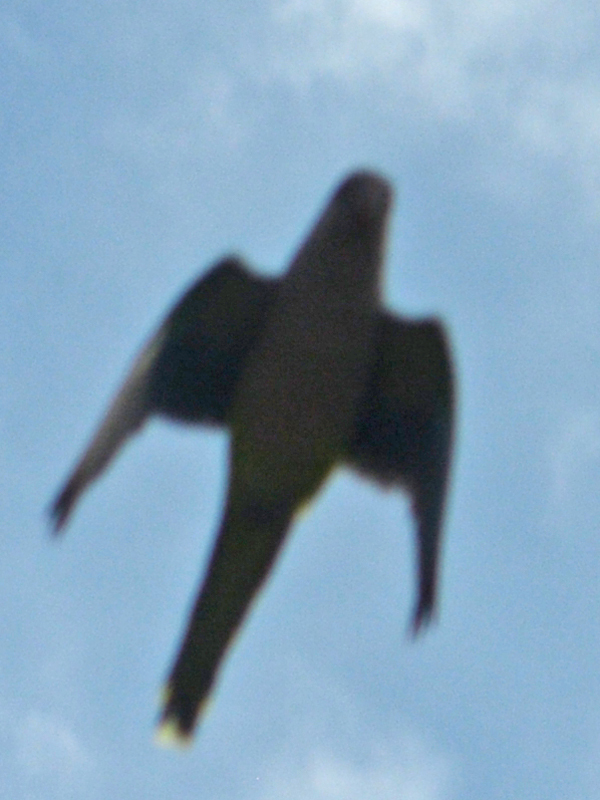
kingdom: Animalia
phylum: Chordata
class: Aves
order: Psittaciformes
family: Psittacidae
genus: Myiopsitta
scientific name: Myiopsitta monachus
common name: Monk parakeet
